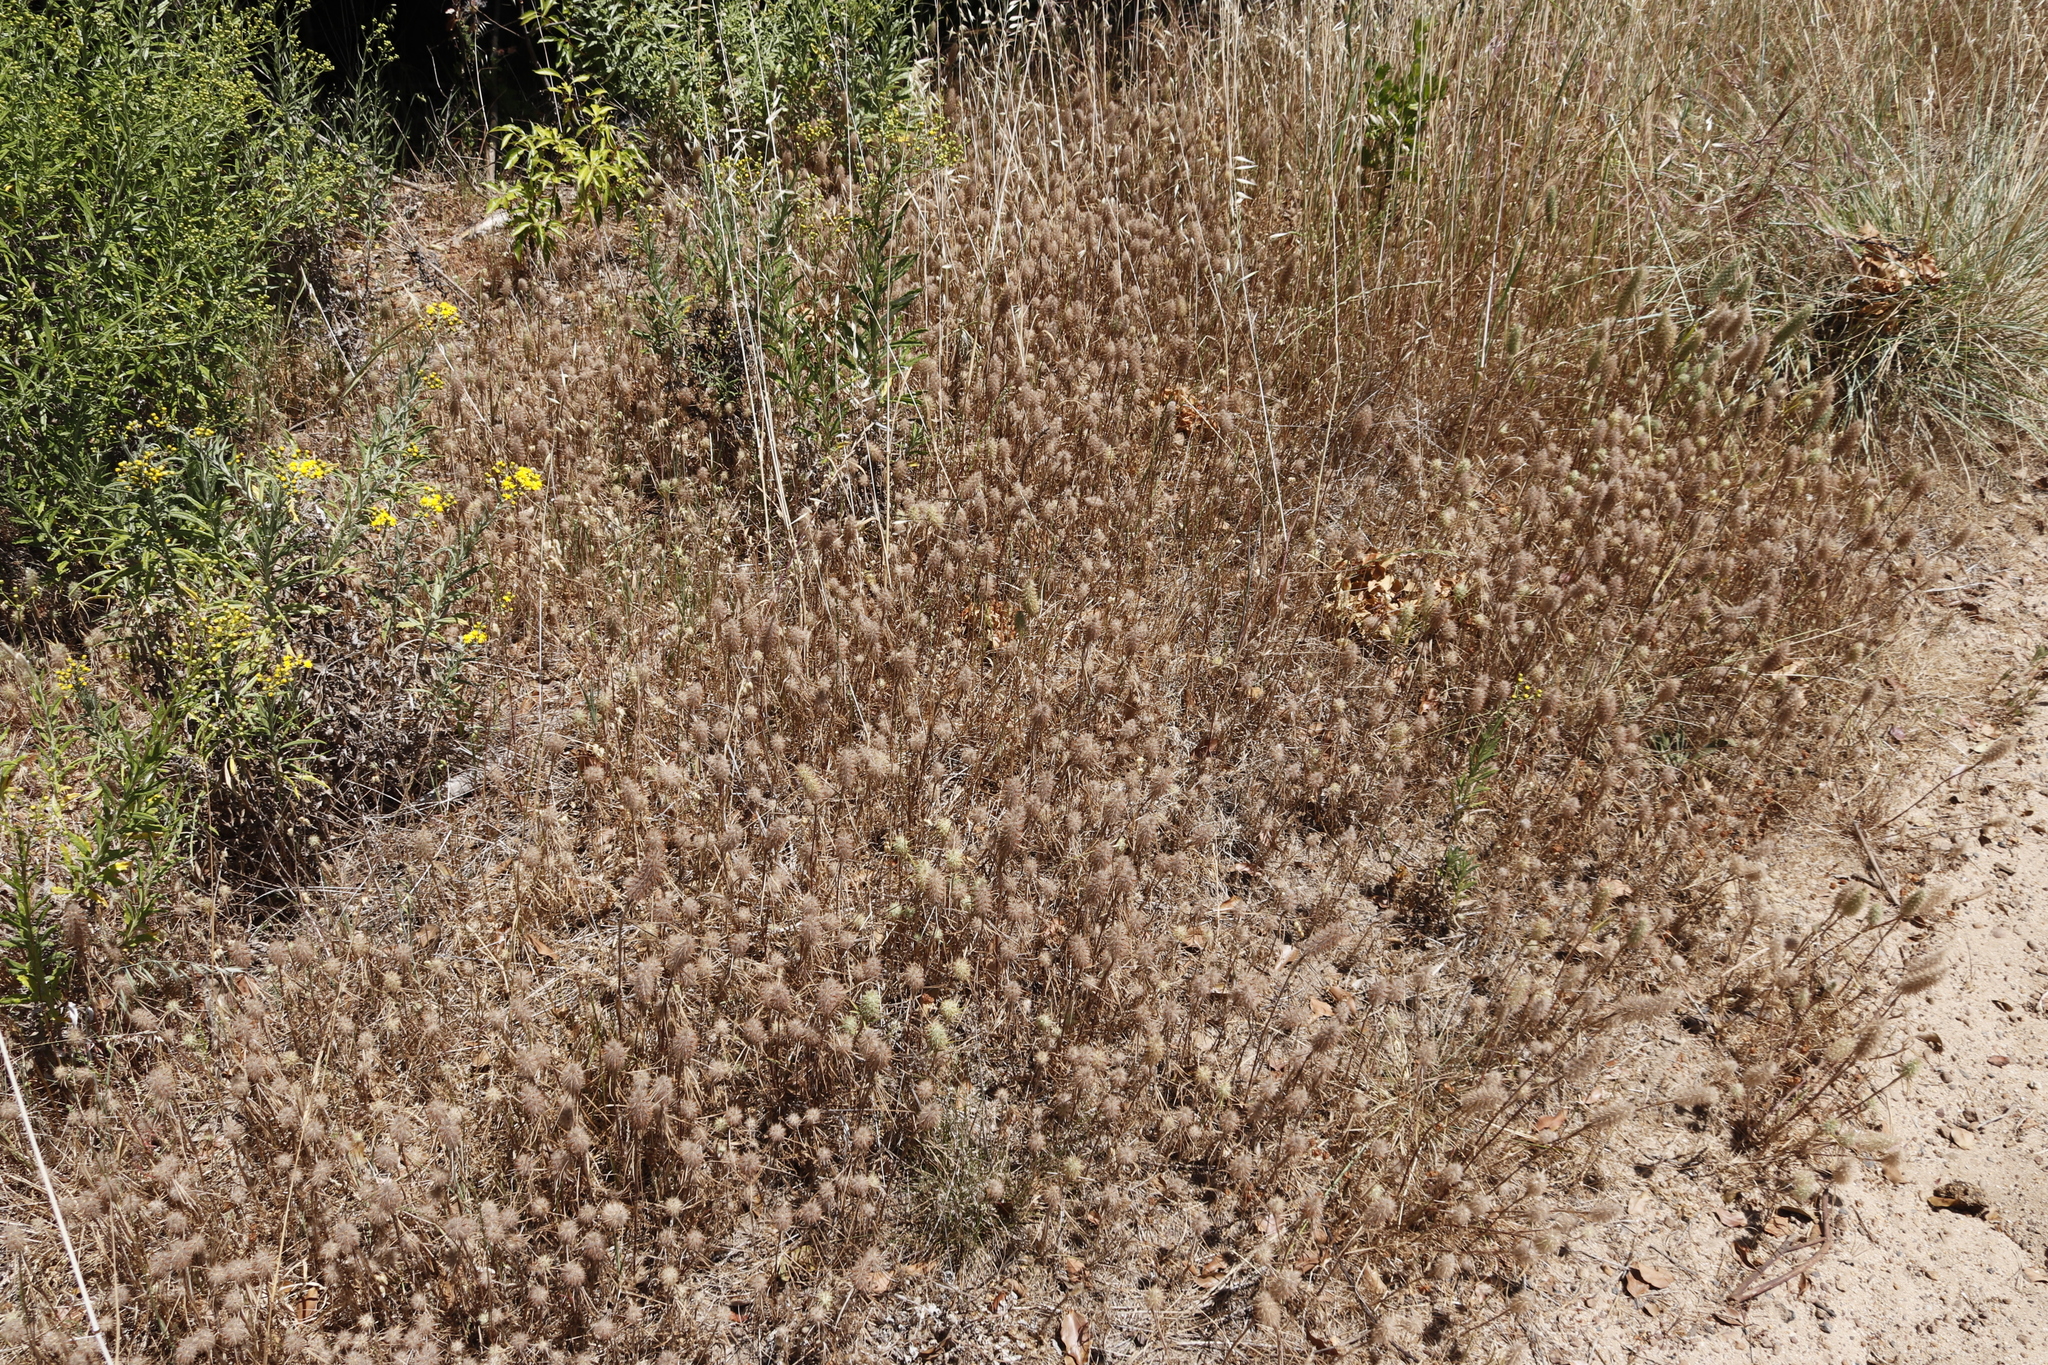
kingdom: Plantae
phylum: Tracheophyta
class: Magnoliopsida
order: Fabales
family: Fabaceae
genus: Trifolium
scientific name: Trifolium angustifolium
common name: Narrow clover
